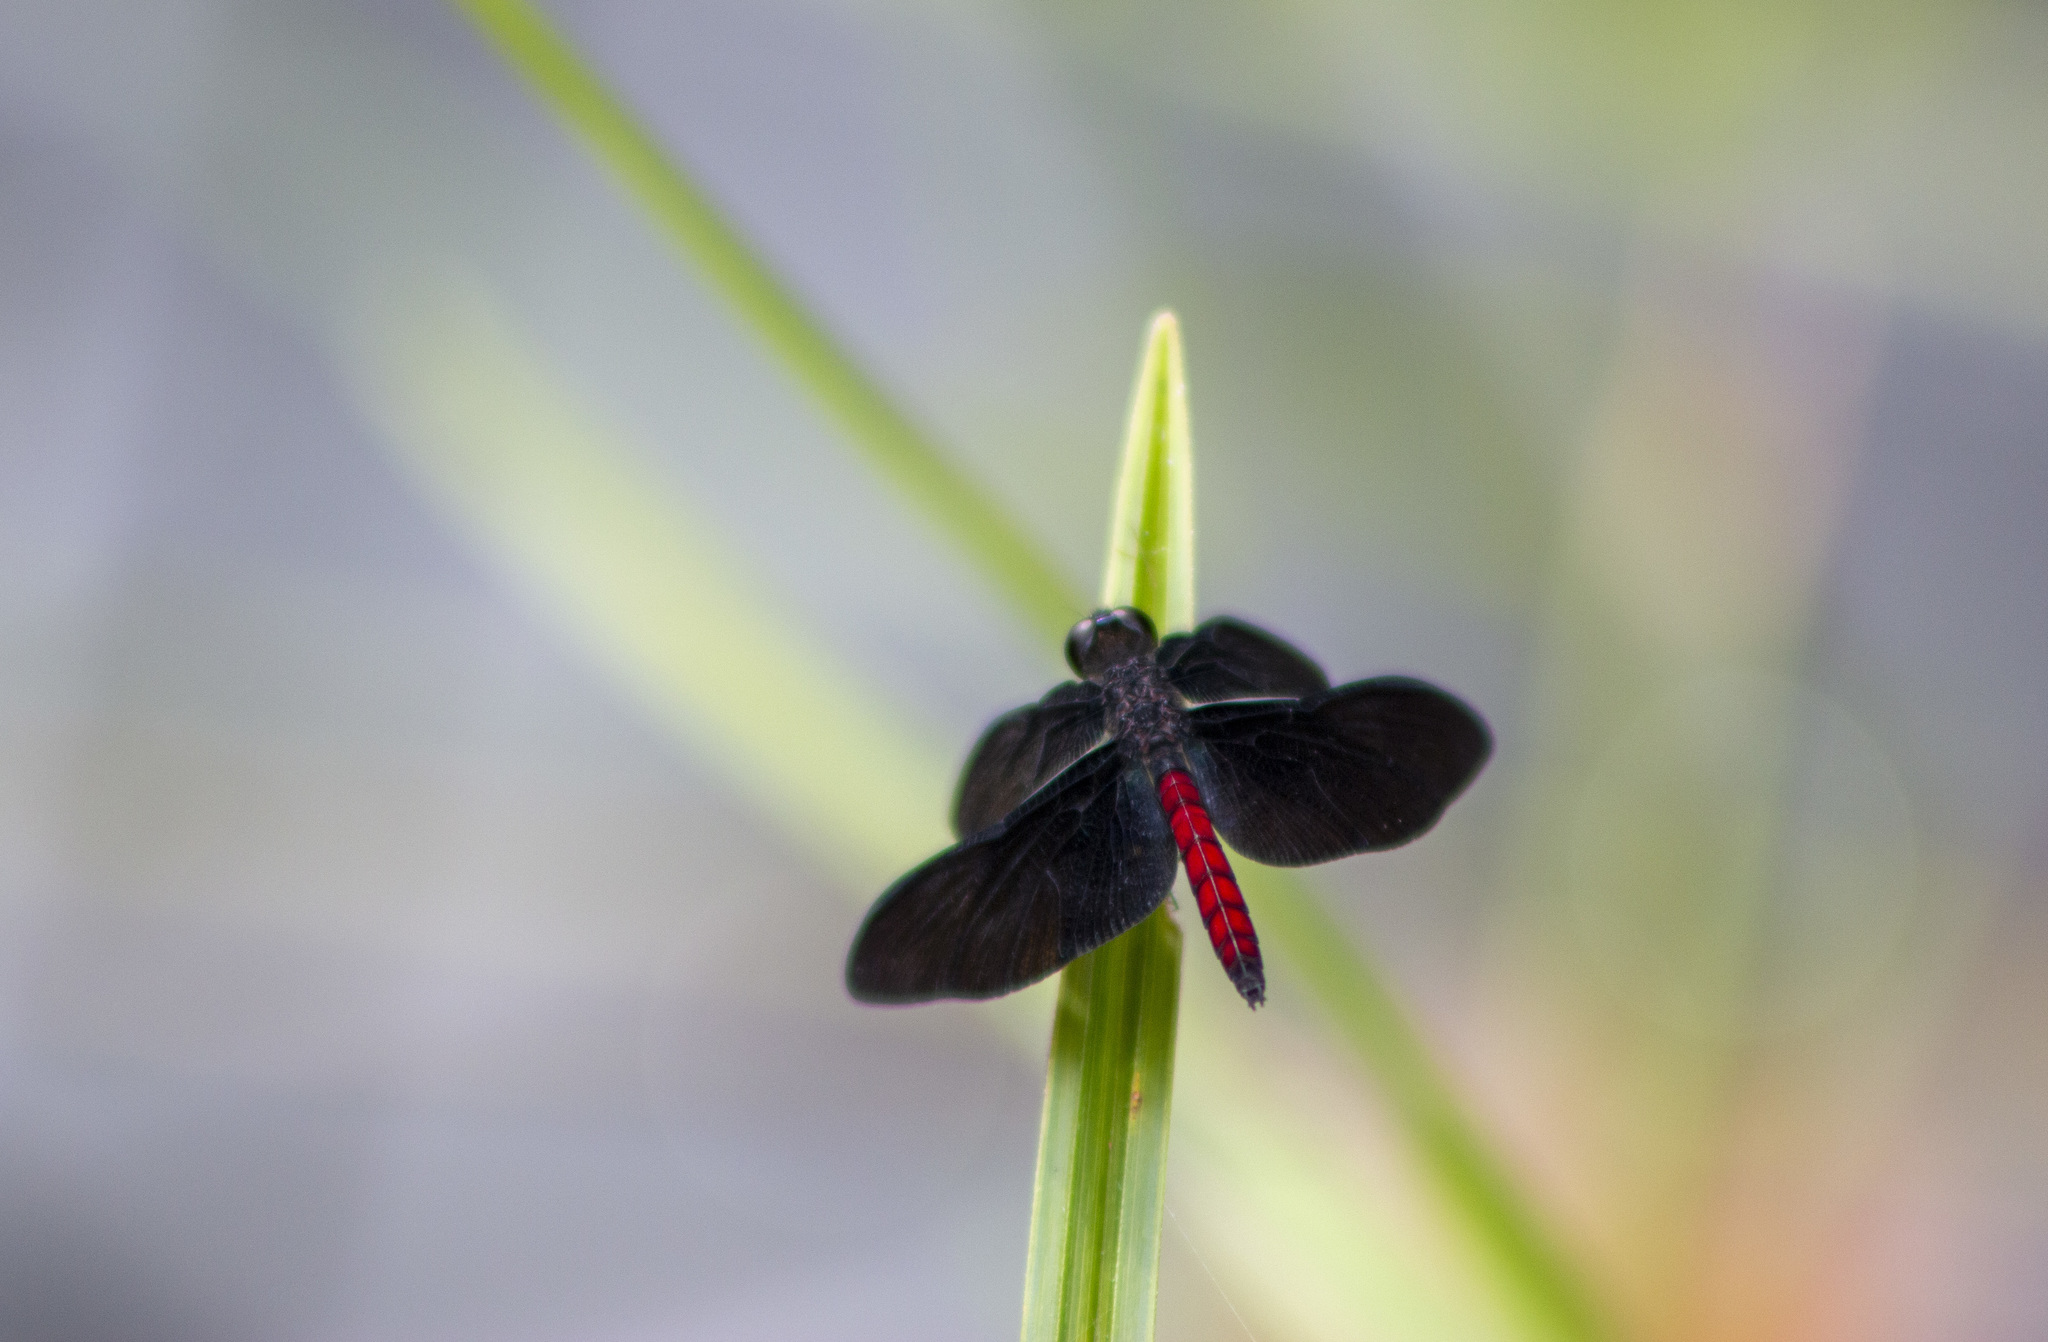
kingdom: Animalia
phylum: Arthropoda
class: Insecta
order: Odonata
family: Libellulidae
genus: Diastatops
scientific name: Diastatops obscura
